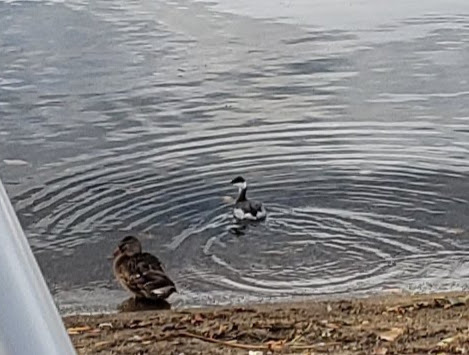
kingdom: Animalia
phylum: Chordata
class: Aves
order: Podicipediformes
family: Podicipedidae
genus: Podiceps
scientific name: Podiceps auritus
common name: Horned grebe
